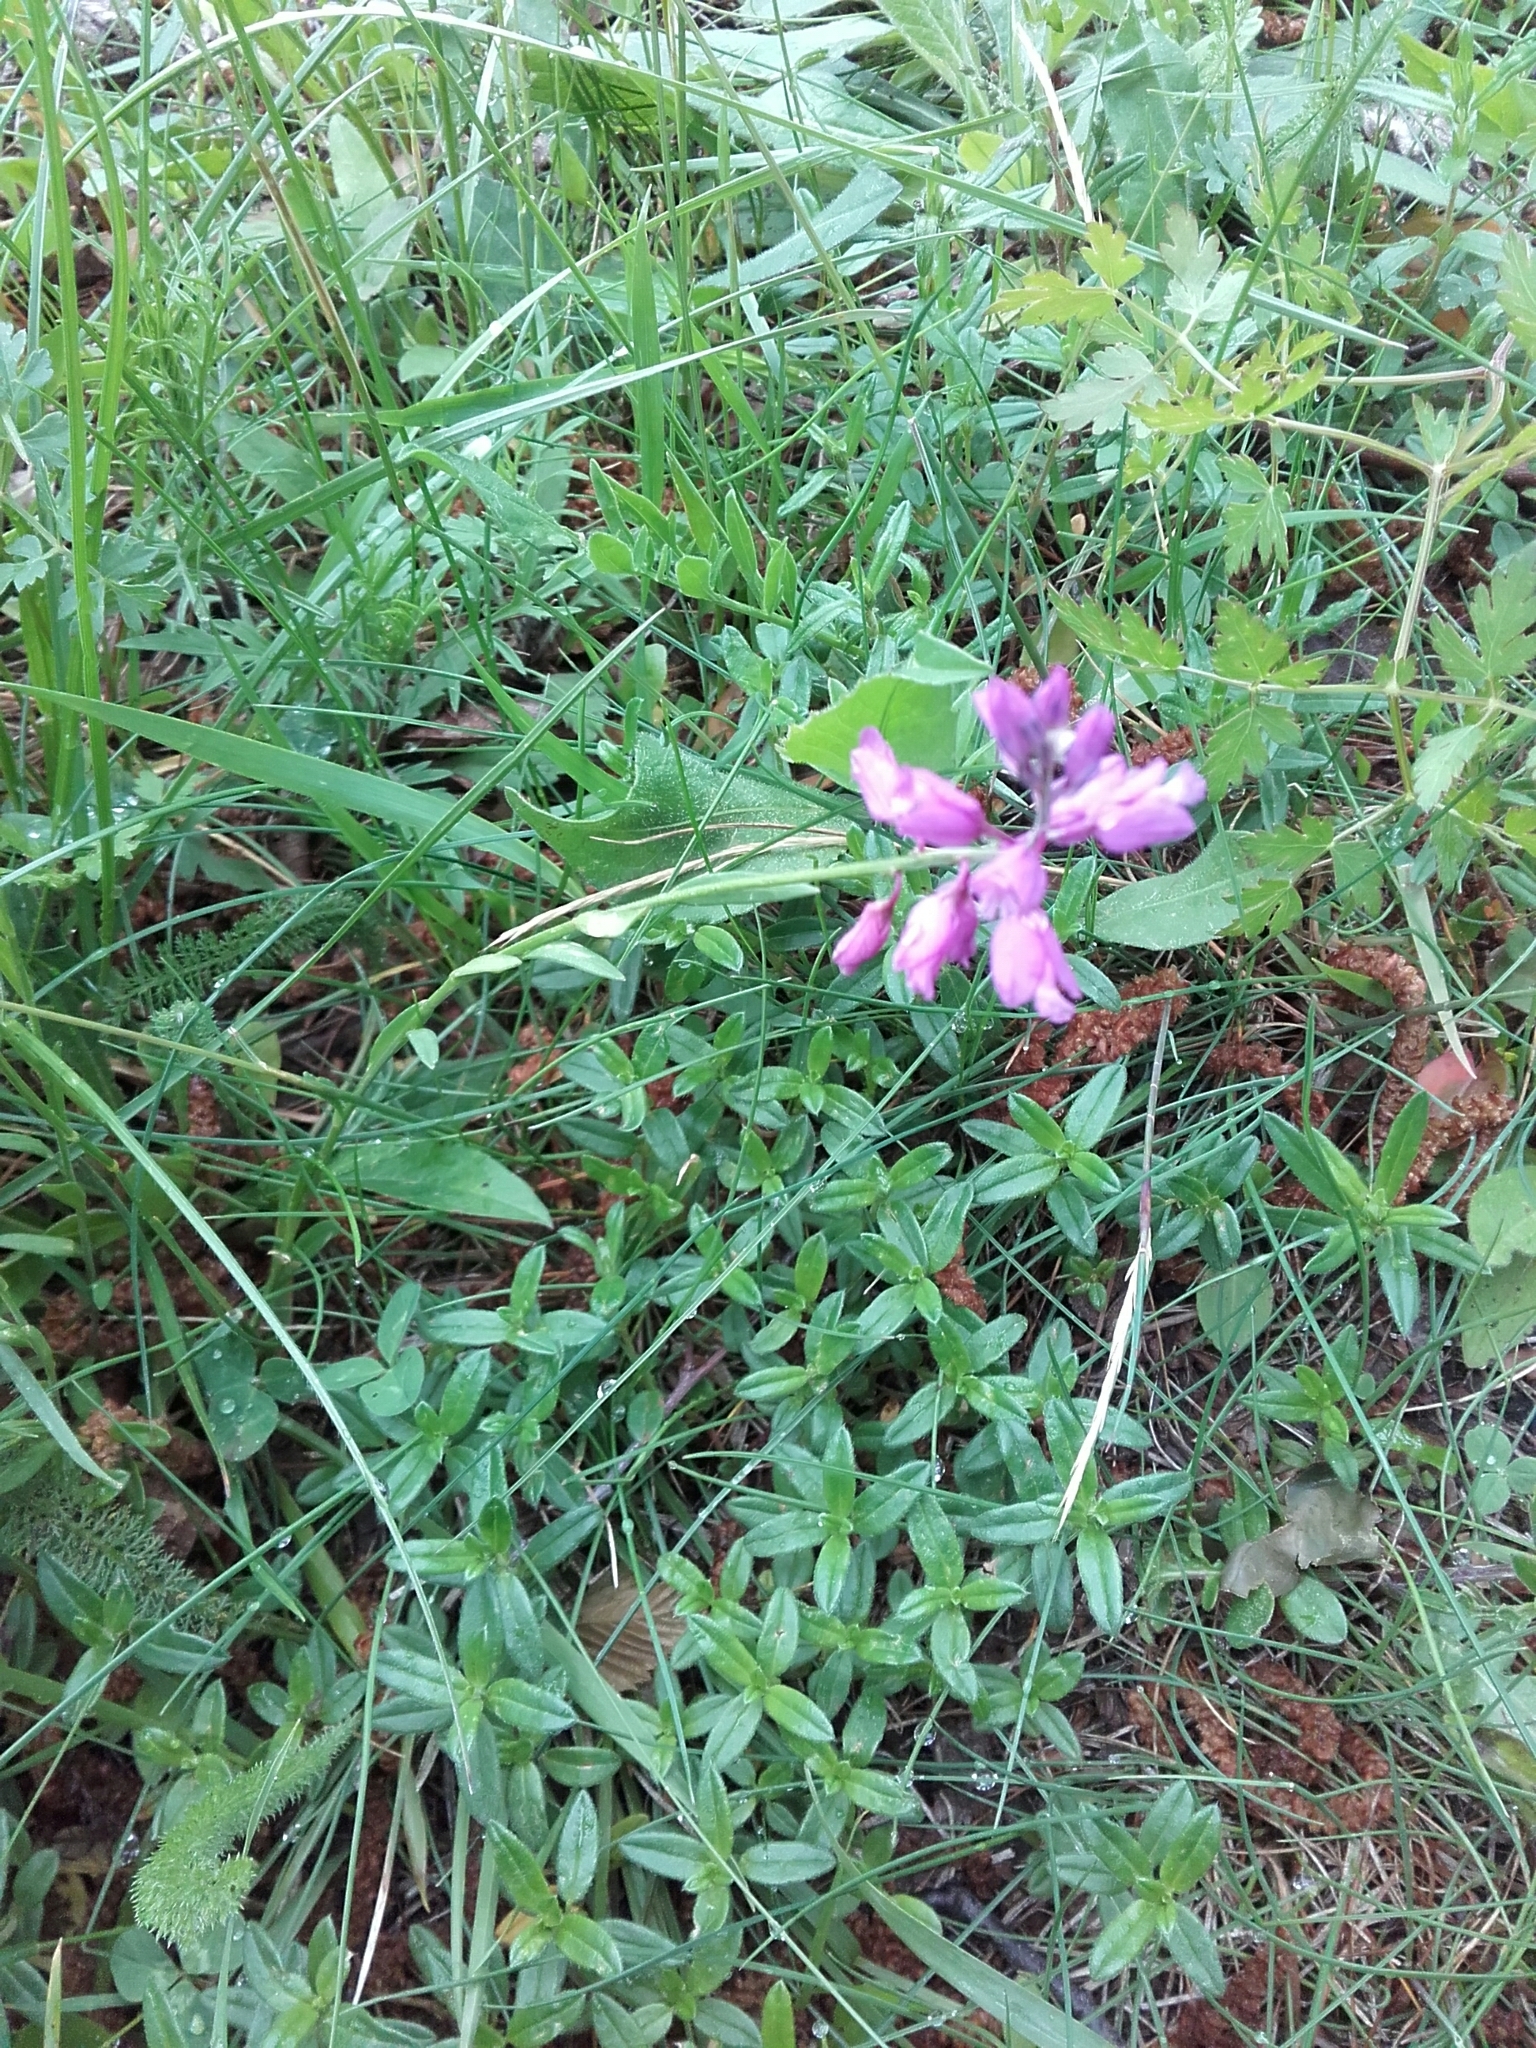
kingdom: Plantae
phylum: Tracheophyta
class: Magnoliopsida
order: Fabales
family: Polygalaceae
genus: Polygala
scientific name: Polygala nicaeensis
